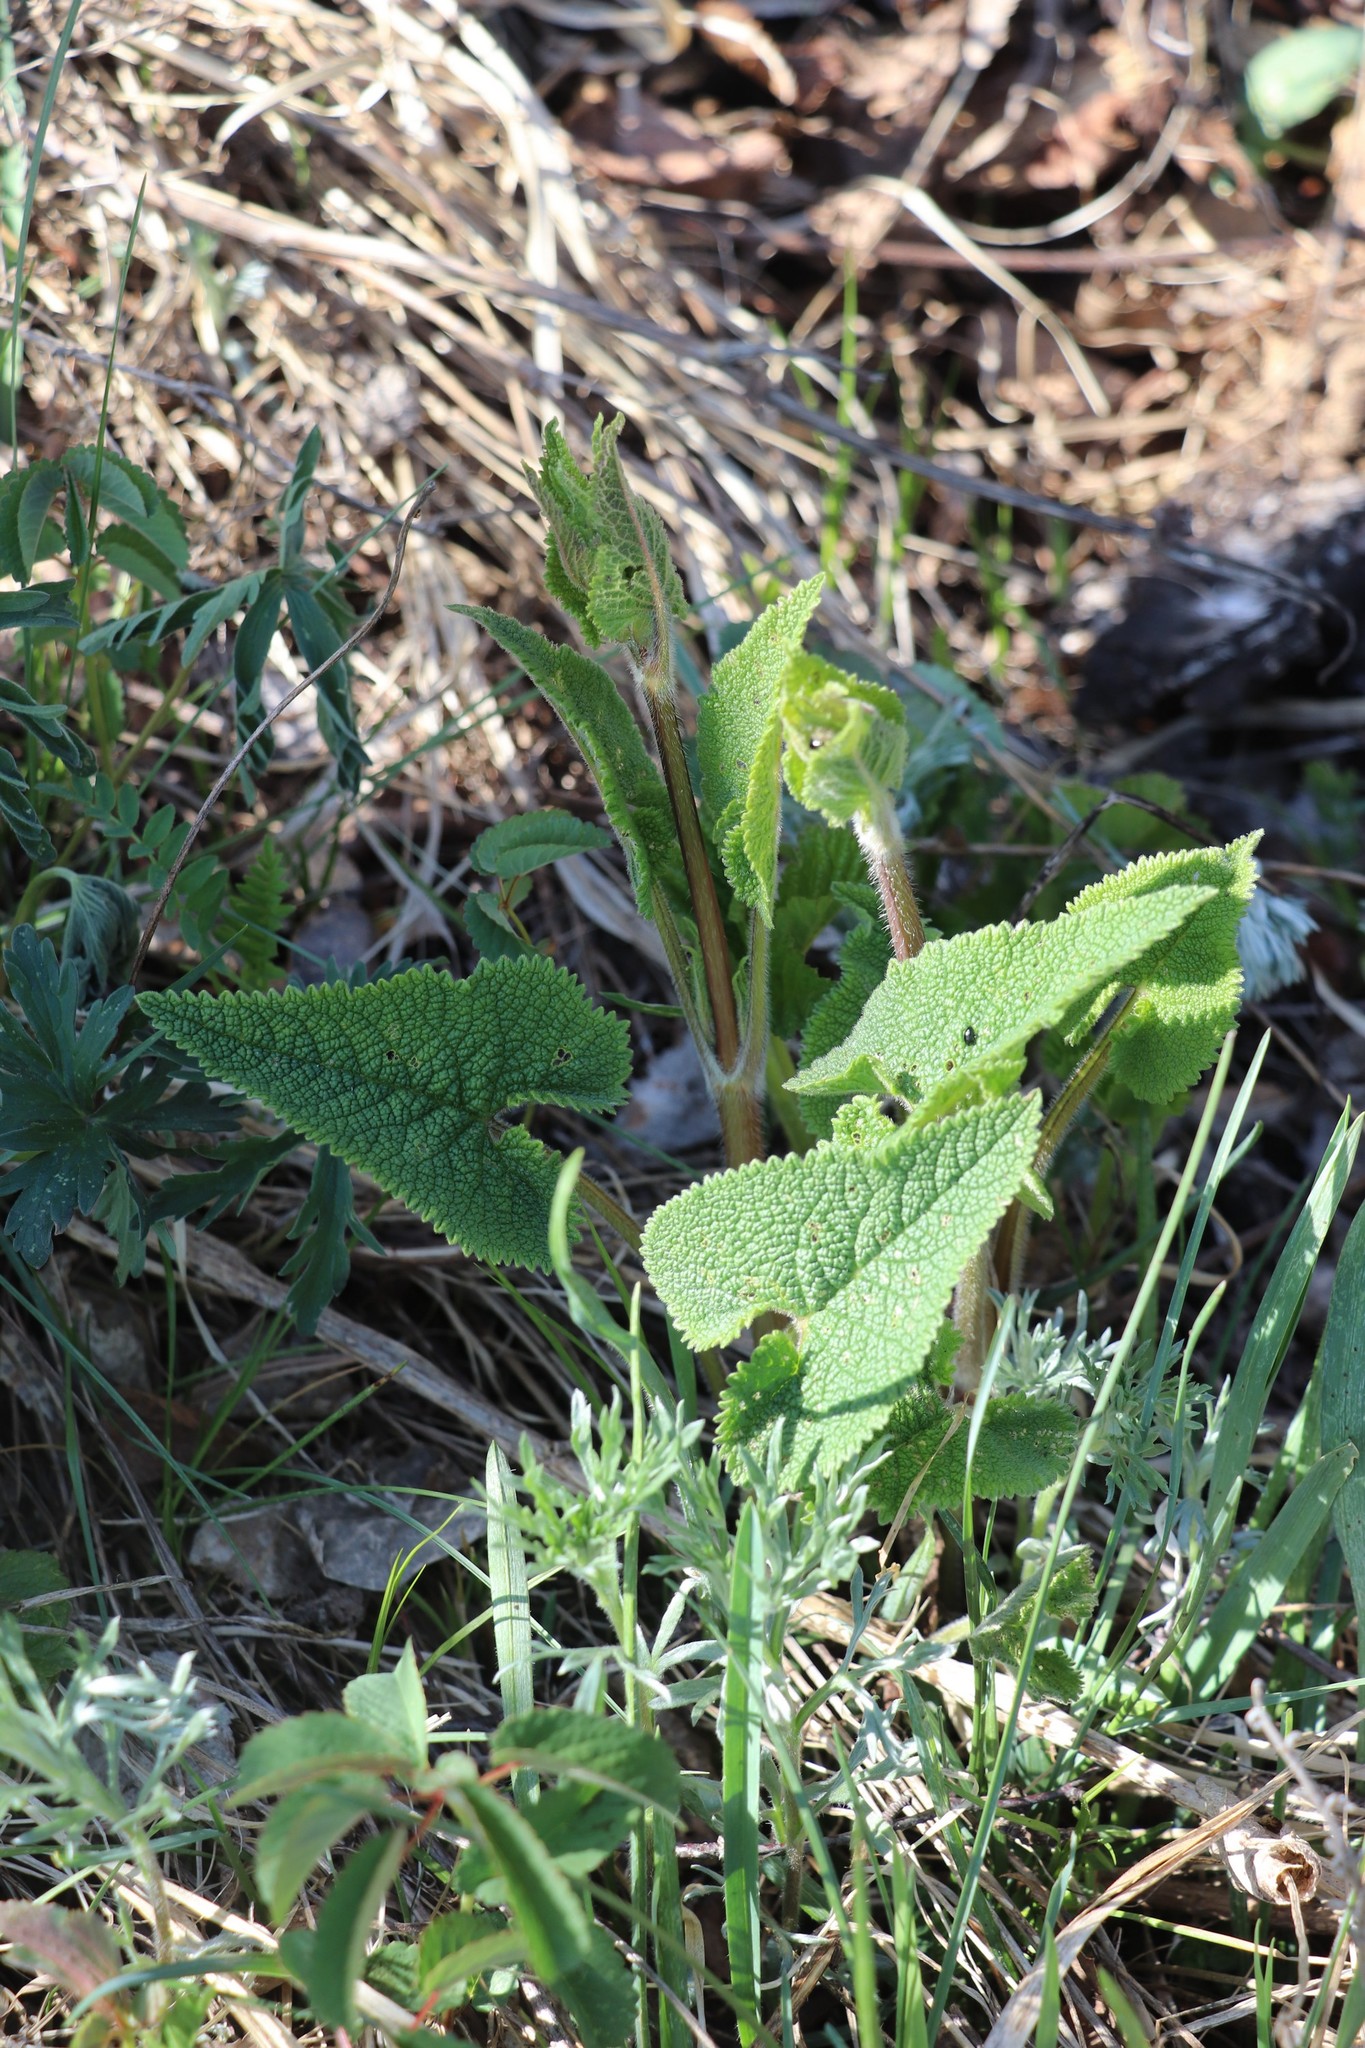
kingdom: Plantae
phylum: Tracheophyta
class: Magnoliopsida
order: Lamiales
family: Lamiaceae
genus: Phlomoides
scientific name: Phlomoides tuberosa
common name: Tuberous jerusalem sage
